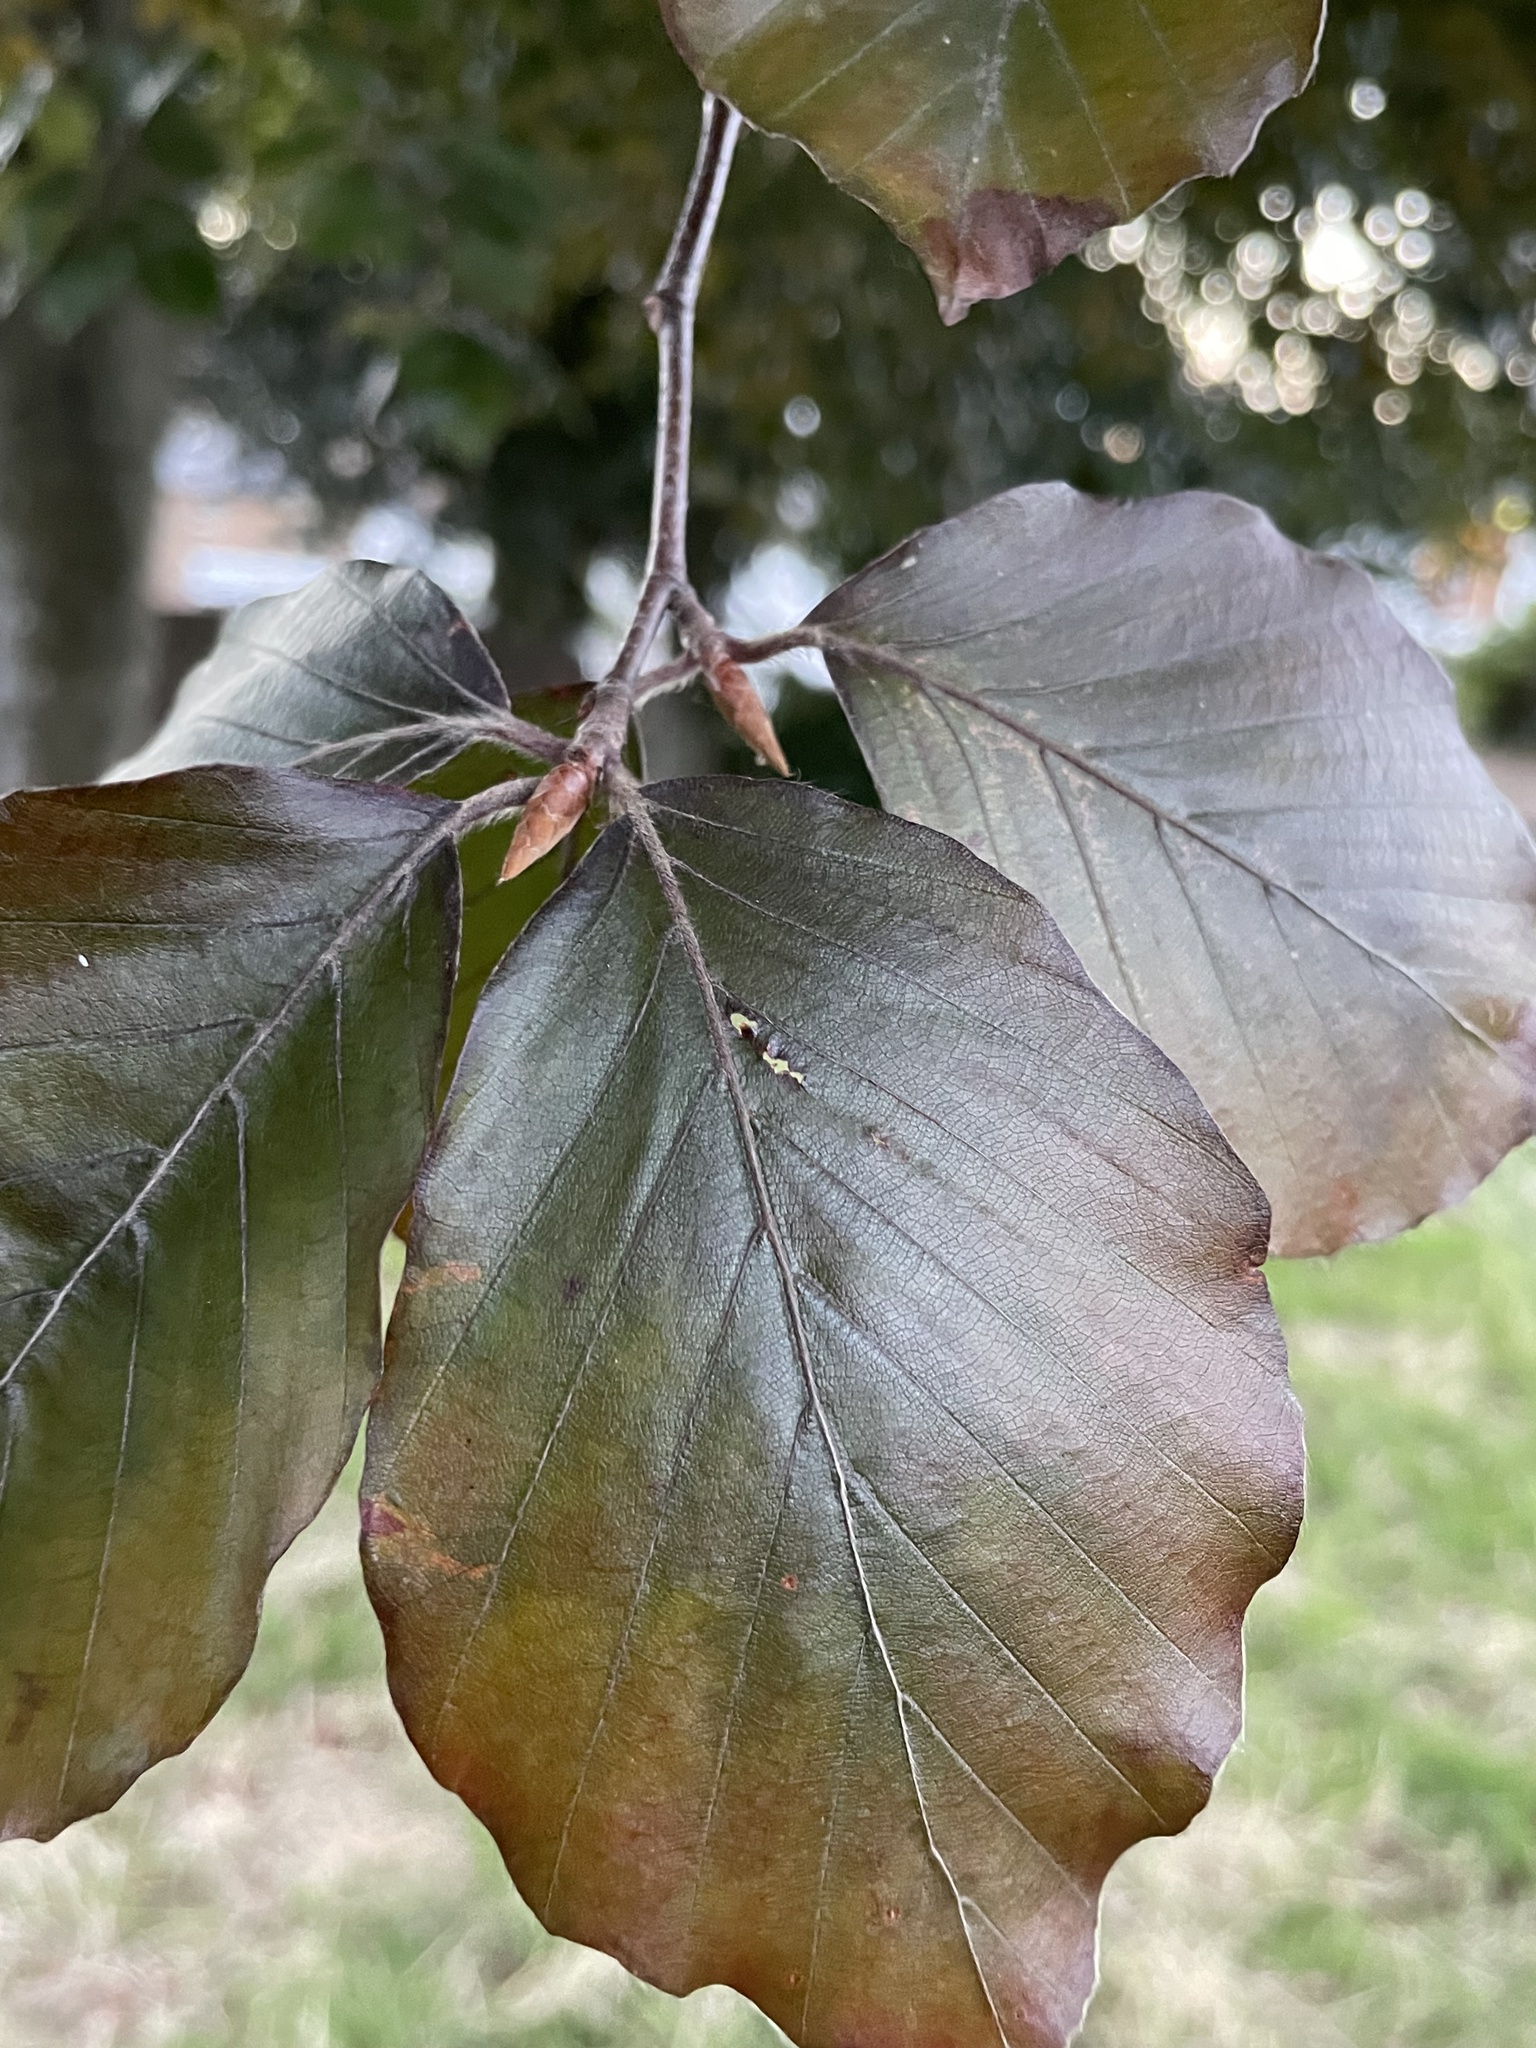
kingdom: Plantae
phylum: Tracheophyta
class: Magnoliopsida
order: Fagales
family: Fagaceae
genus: Fagus
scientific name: Fagus sylvatica
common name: Beech
